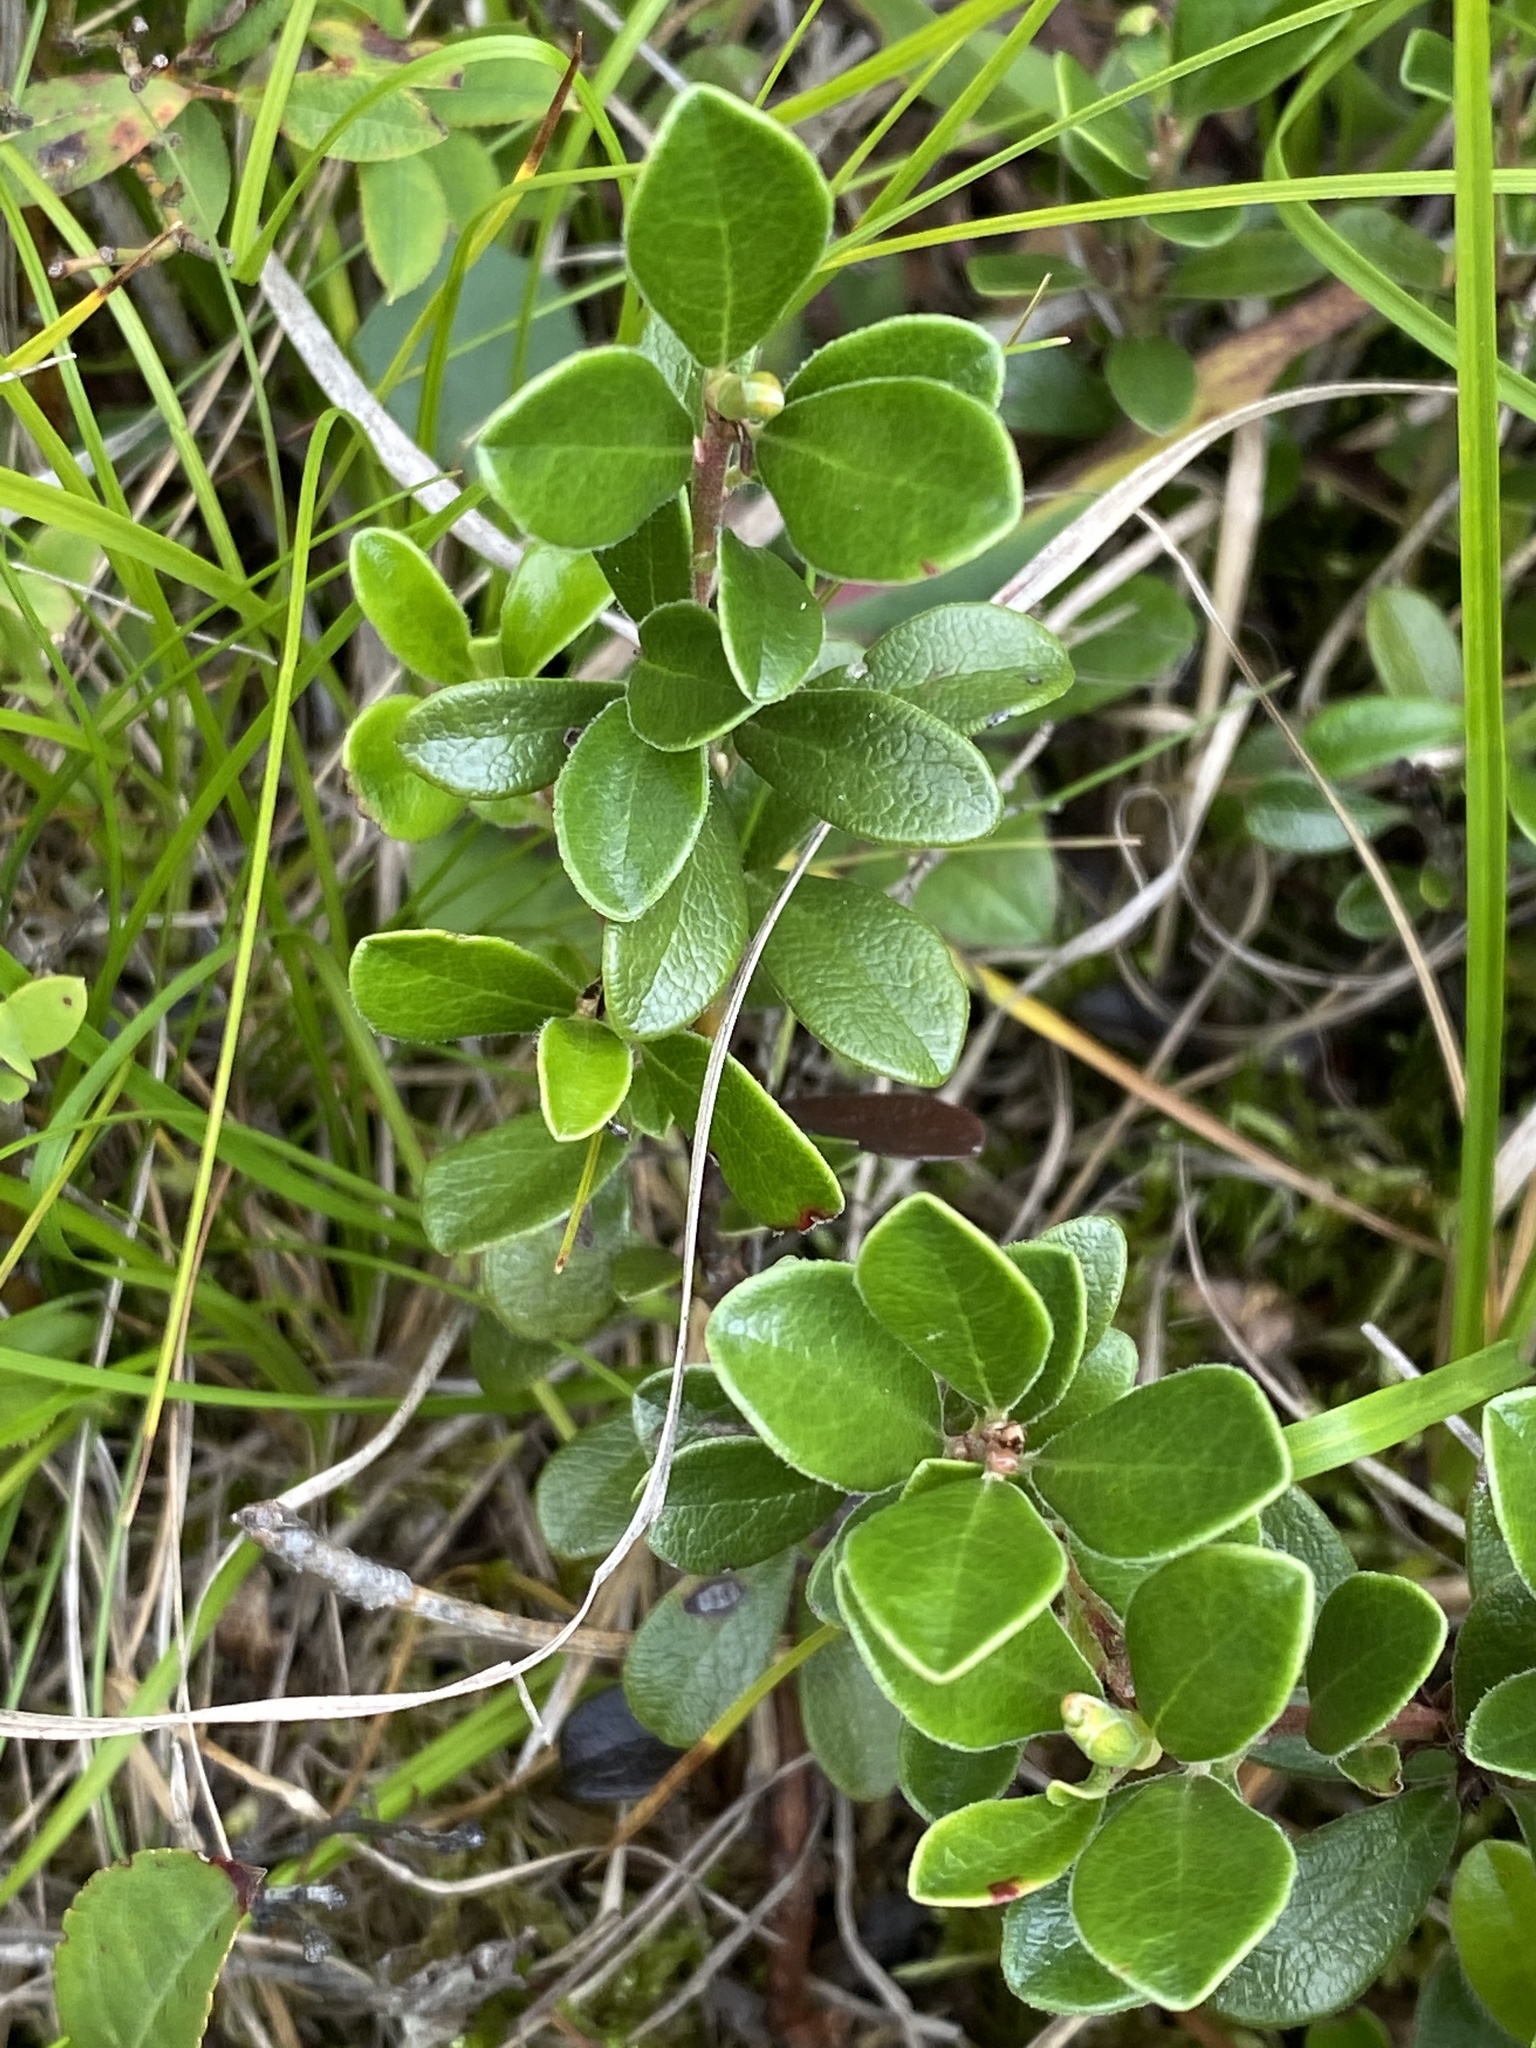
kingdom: Plantae
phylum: Tracheophyta
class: Magnoliopsida
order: Ericales
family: Ericaceae
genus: Arctostaphylos
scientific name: Arctostaphylos uva-ursi
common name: Bearberry
